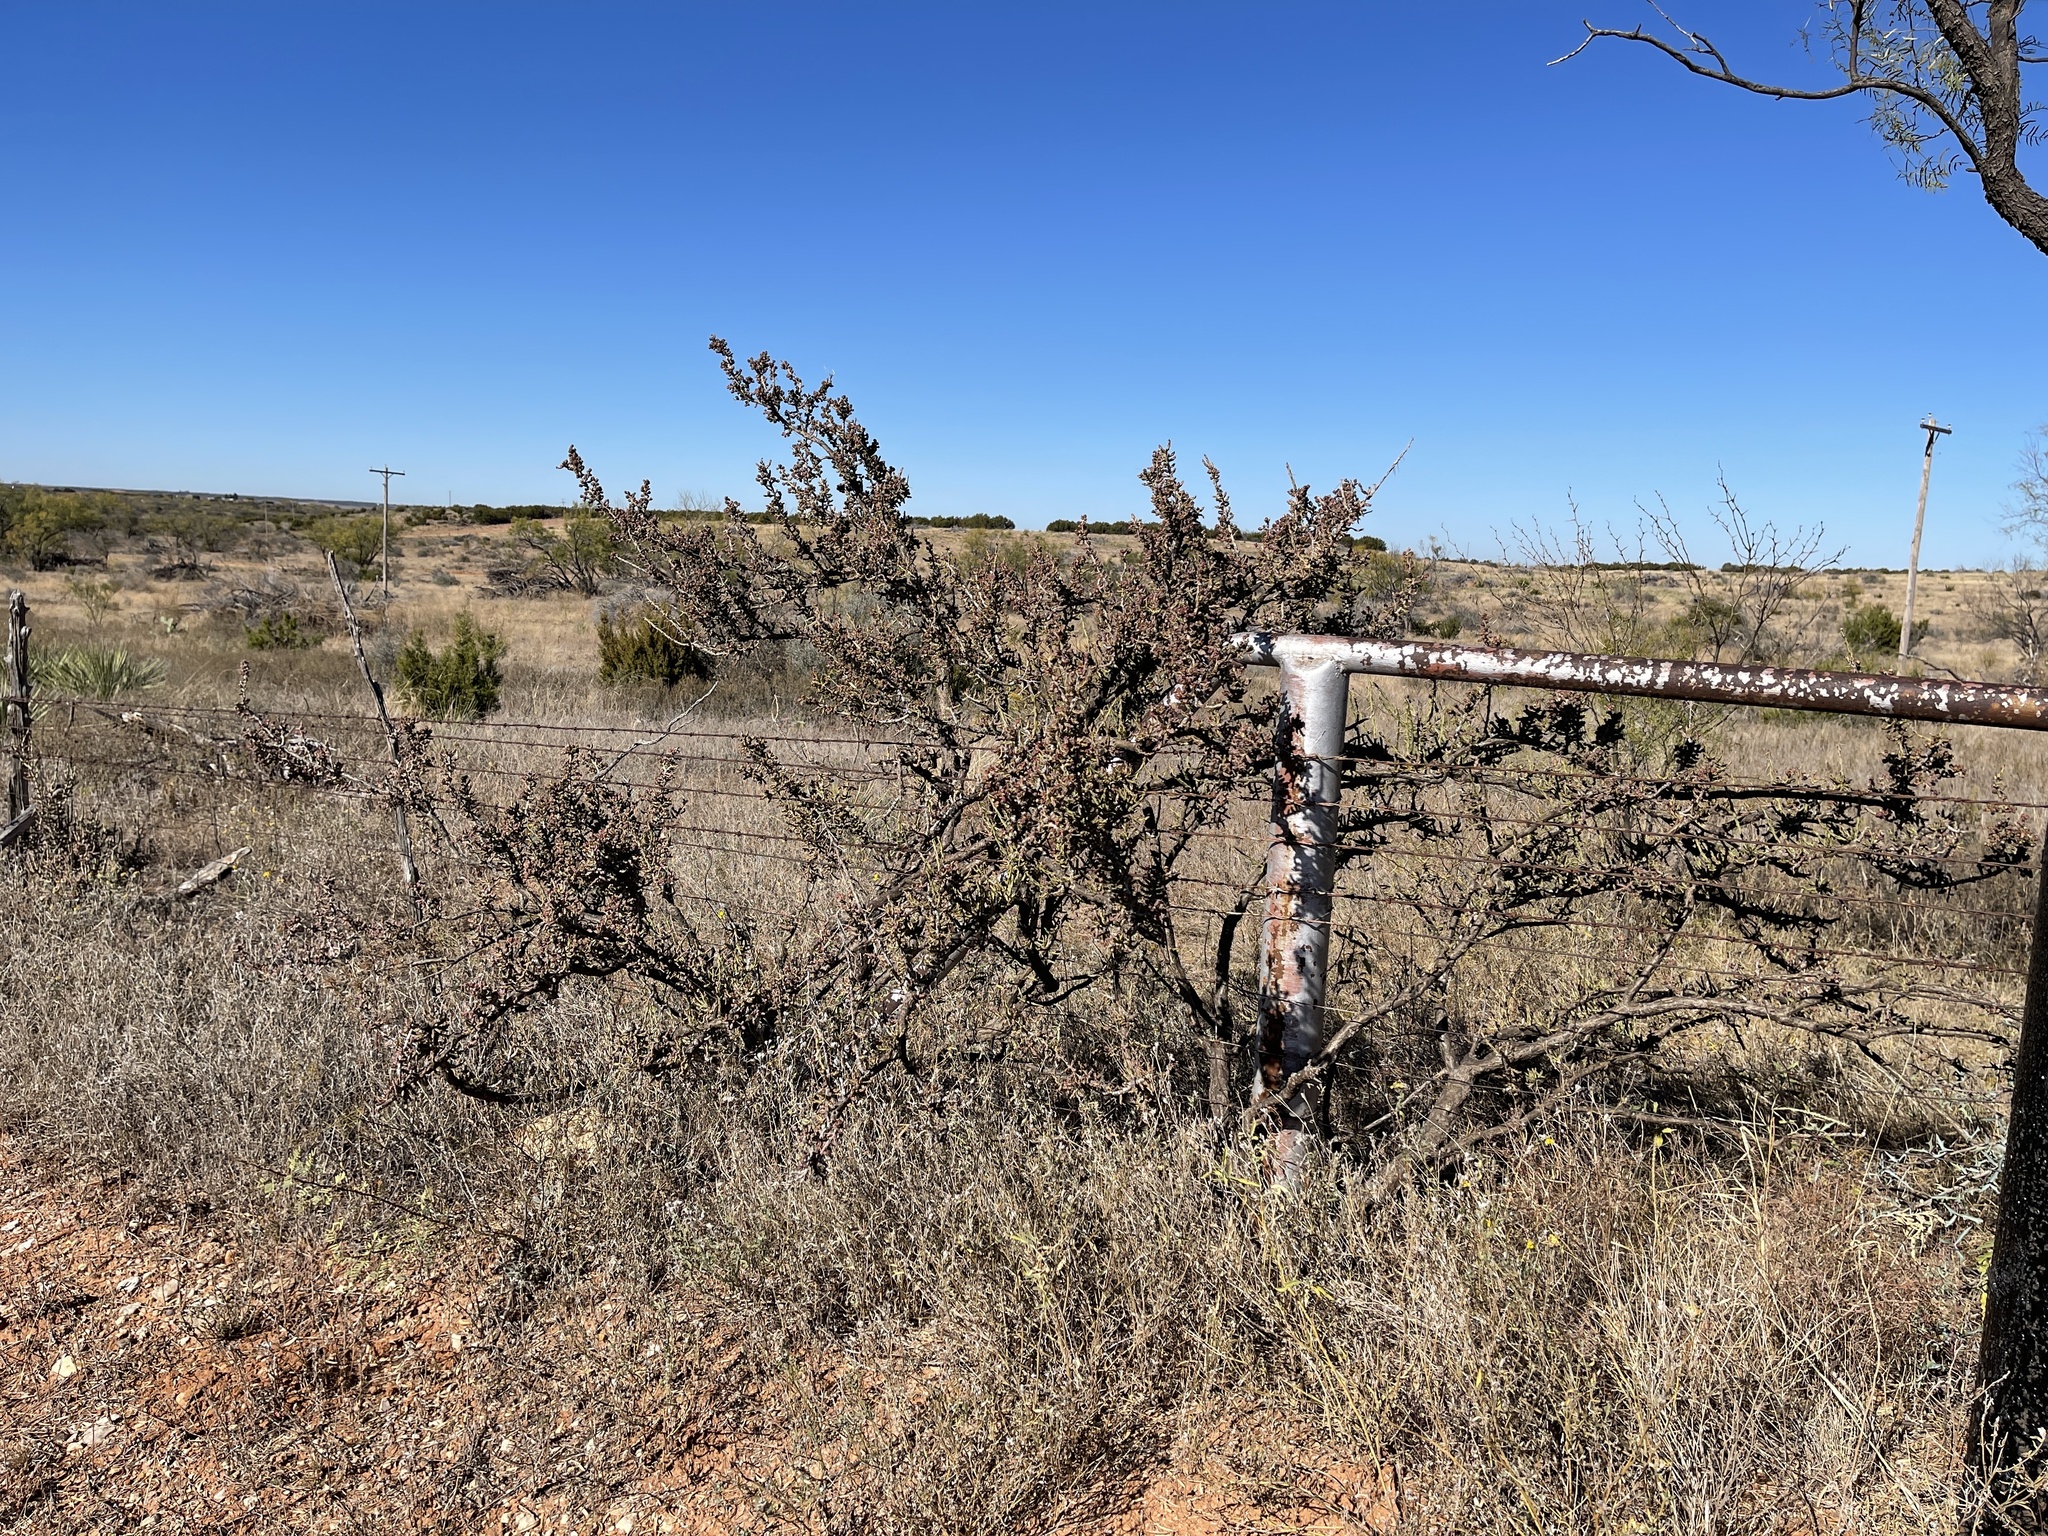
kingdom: Plantae
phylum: Tracheophyta
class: Magnoliopsida
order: Caryophyllales
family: Cactaceae
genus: Cylindropuntia
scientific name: Cylindropuntia leptocaulis
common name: Christmas cactus
